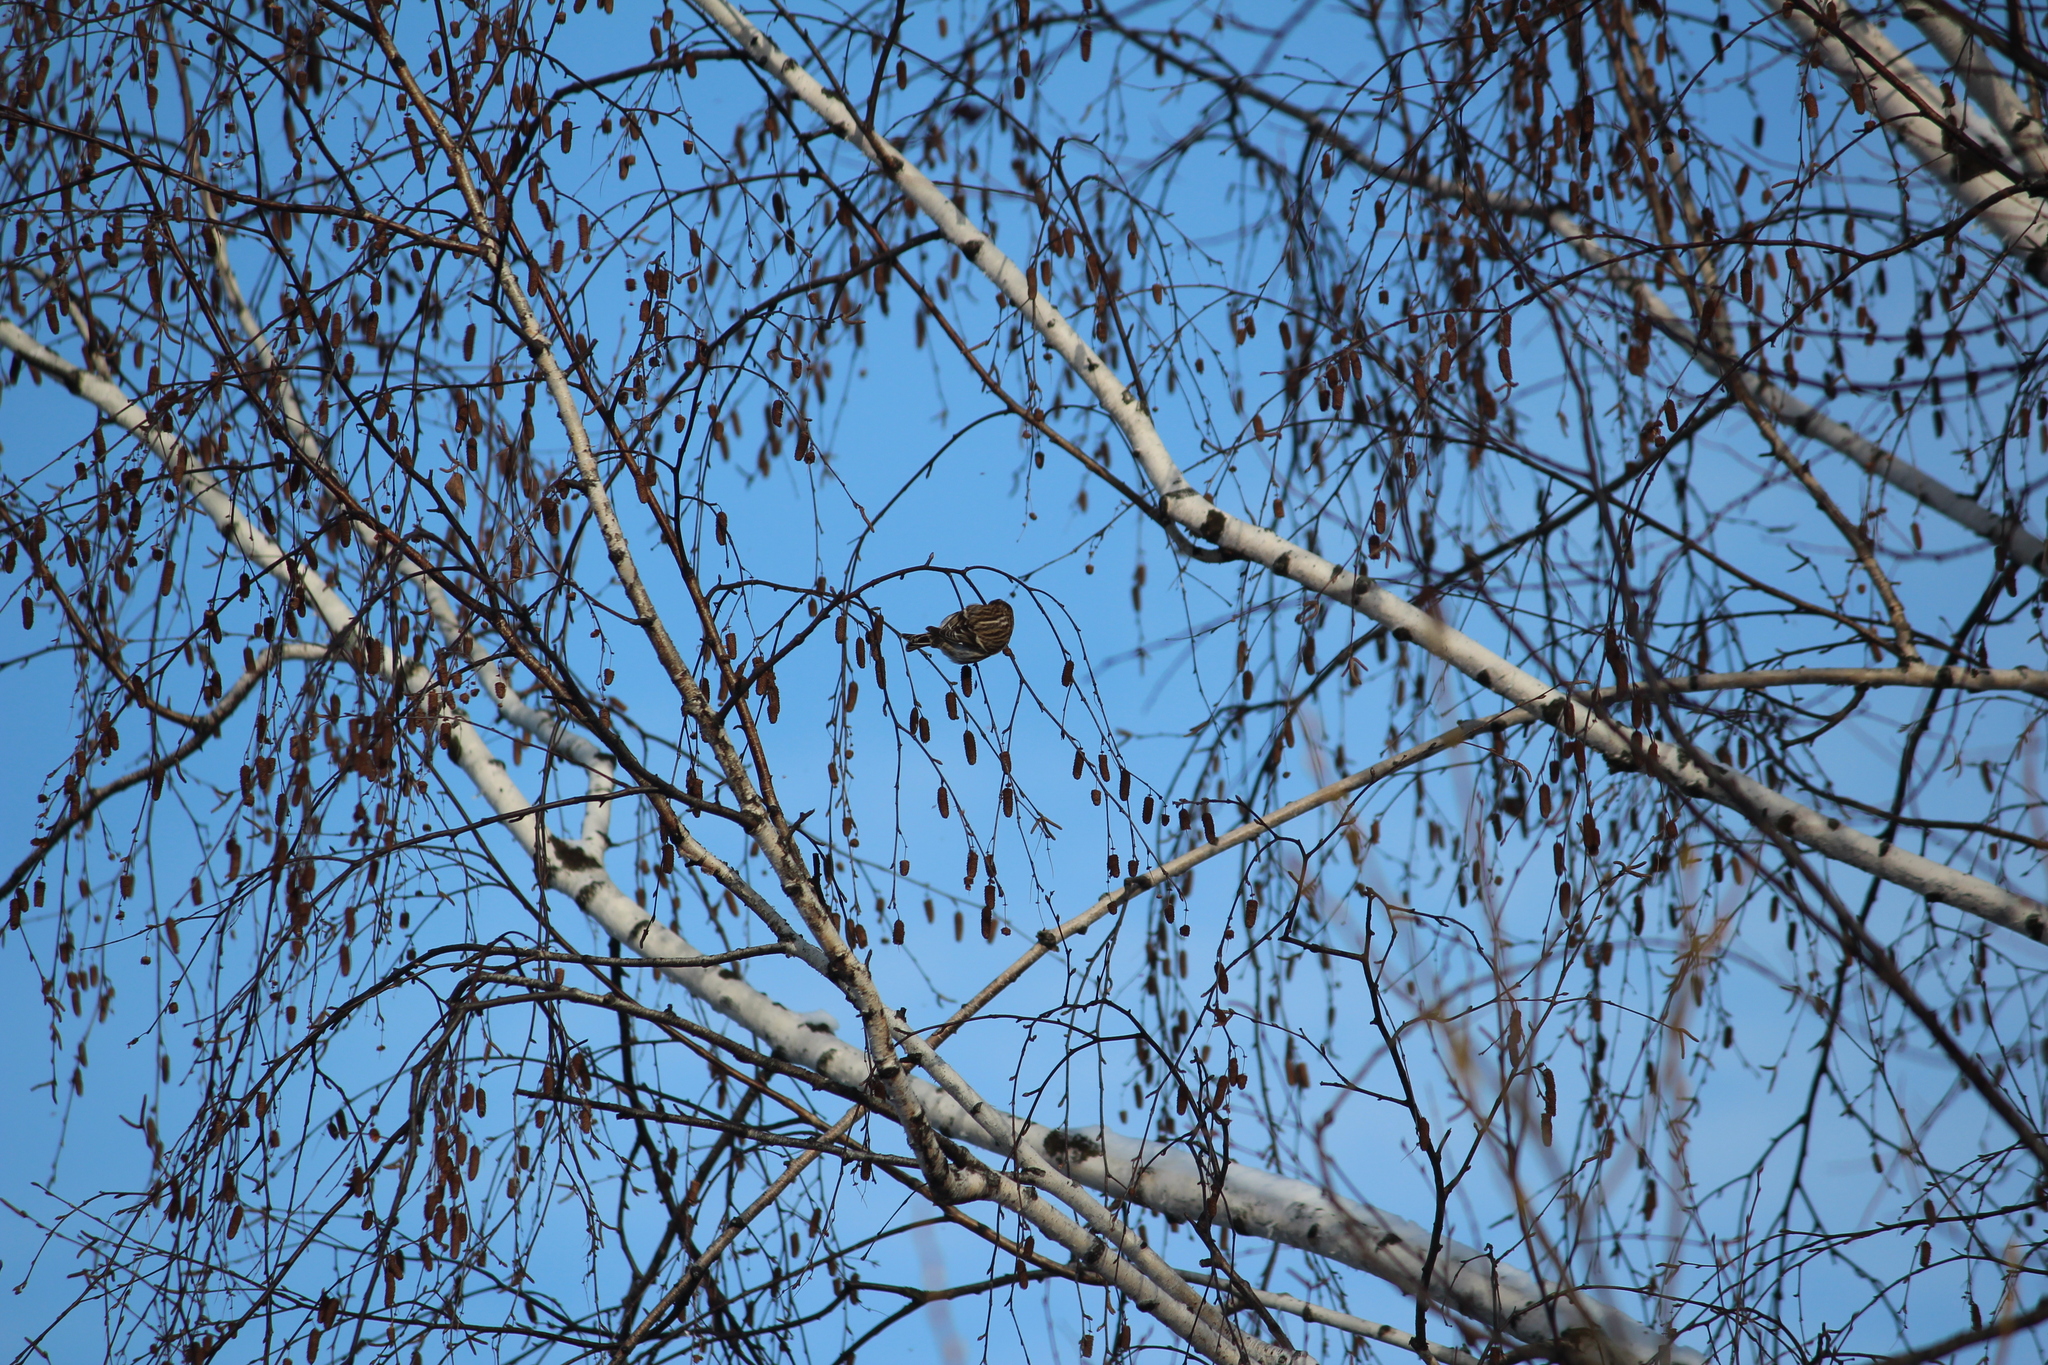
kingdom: Animalia
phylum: Chordata
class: Aves
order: Passeriformes
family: Fringillidae
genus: Acanthis
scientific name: Acanthis flammea
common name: Common redpoll
